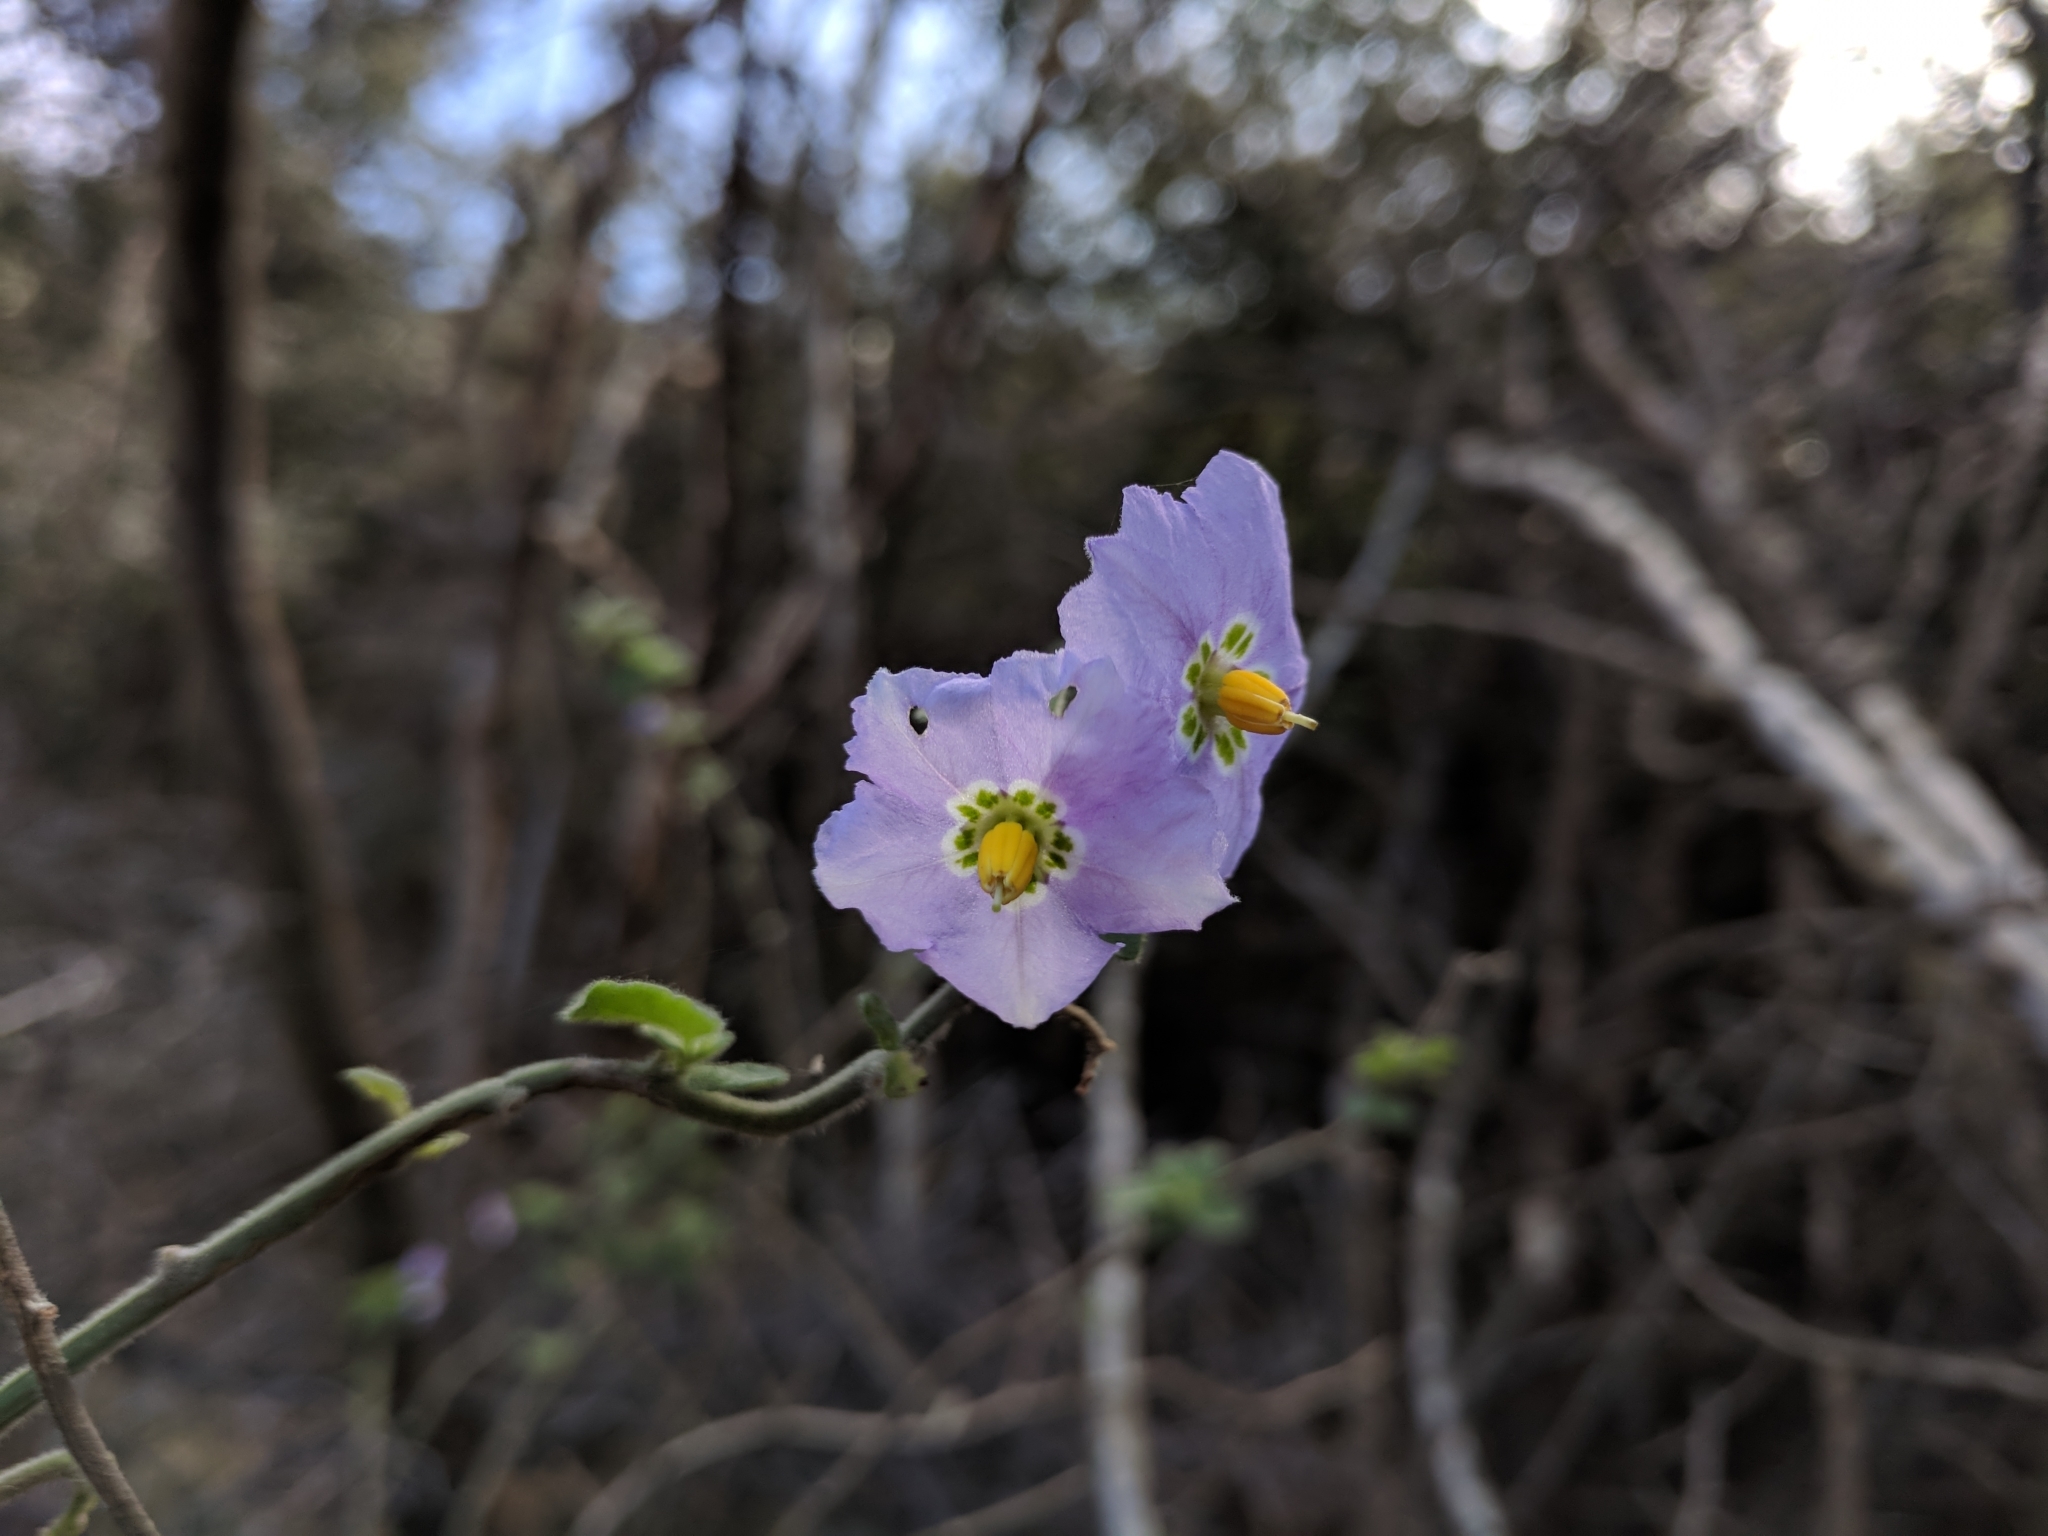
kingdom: Plantae
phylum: Tracheophyta
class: Magnoliopsida
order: Solanales
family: Solanaceae
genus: Solanum
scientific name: Solanum umbelliferum
